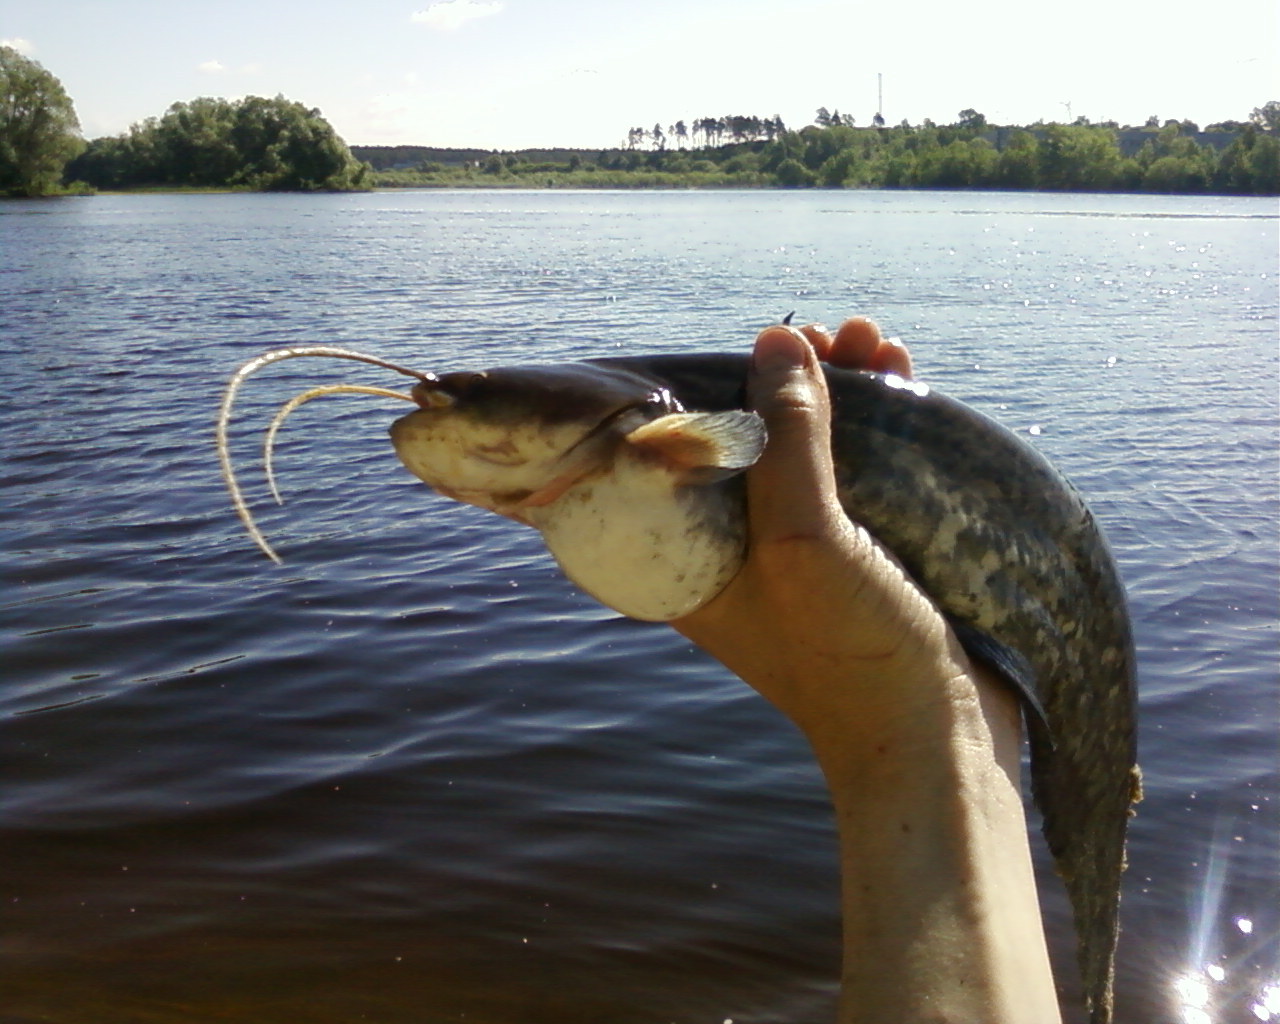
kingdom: Animalia
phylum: Chordata
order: Siluriformes
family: Siluridae
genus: Silurus
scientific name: Silurus glanis
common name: Wels
